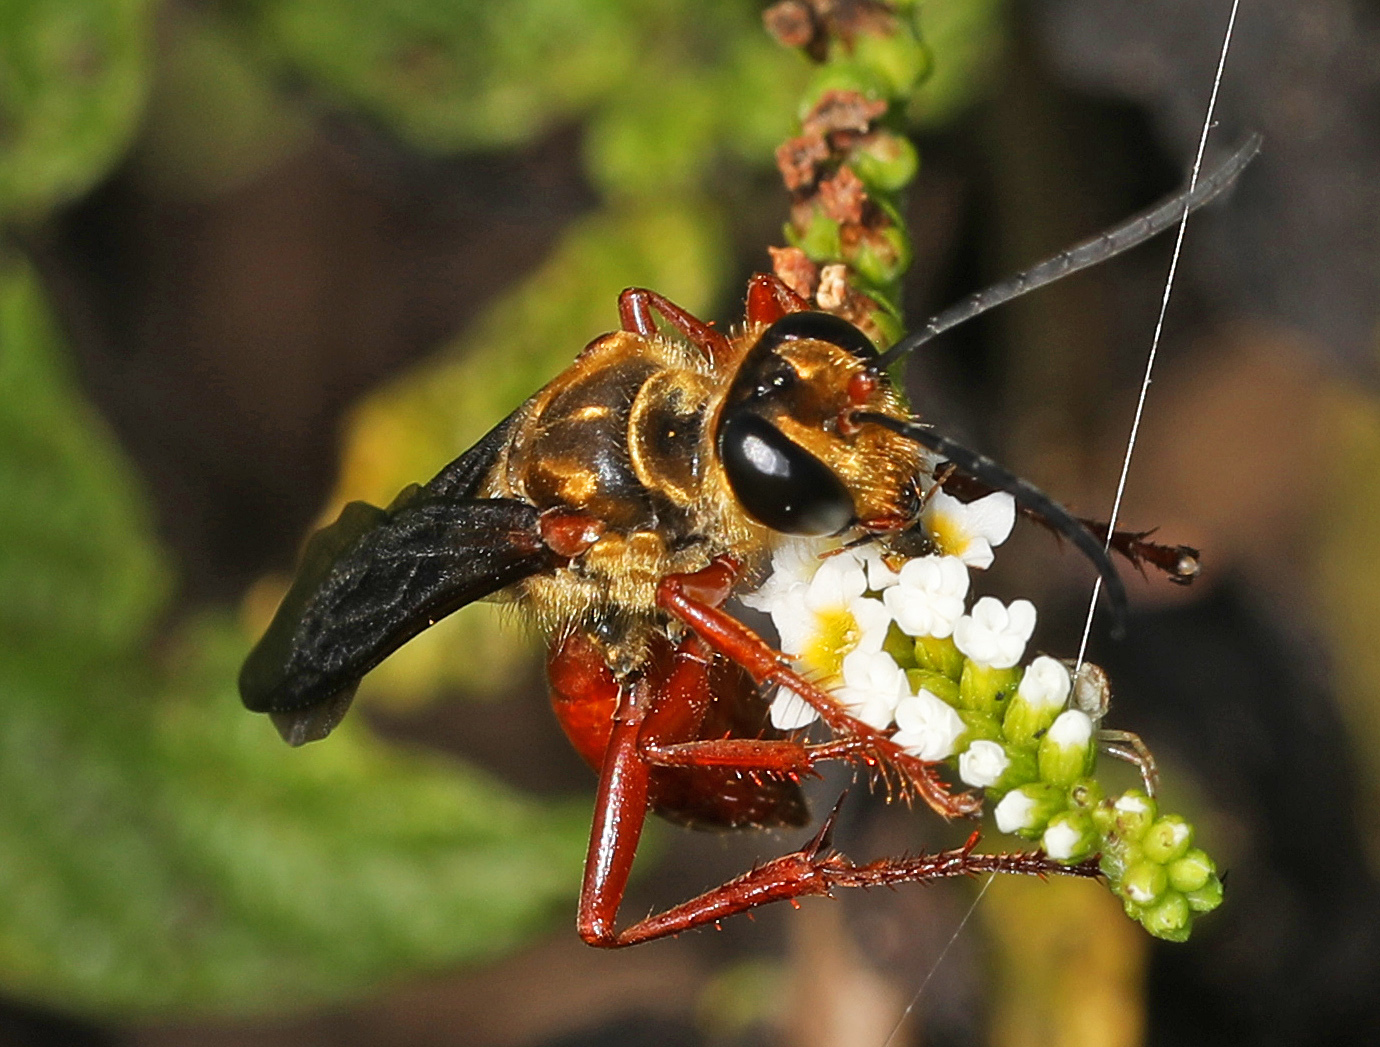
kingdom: Animalia
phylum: Arthropoda
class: Insecta
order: Hymenoptera
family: Sphecidae
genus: Sphex
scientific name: Sphex jamaicensis
